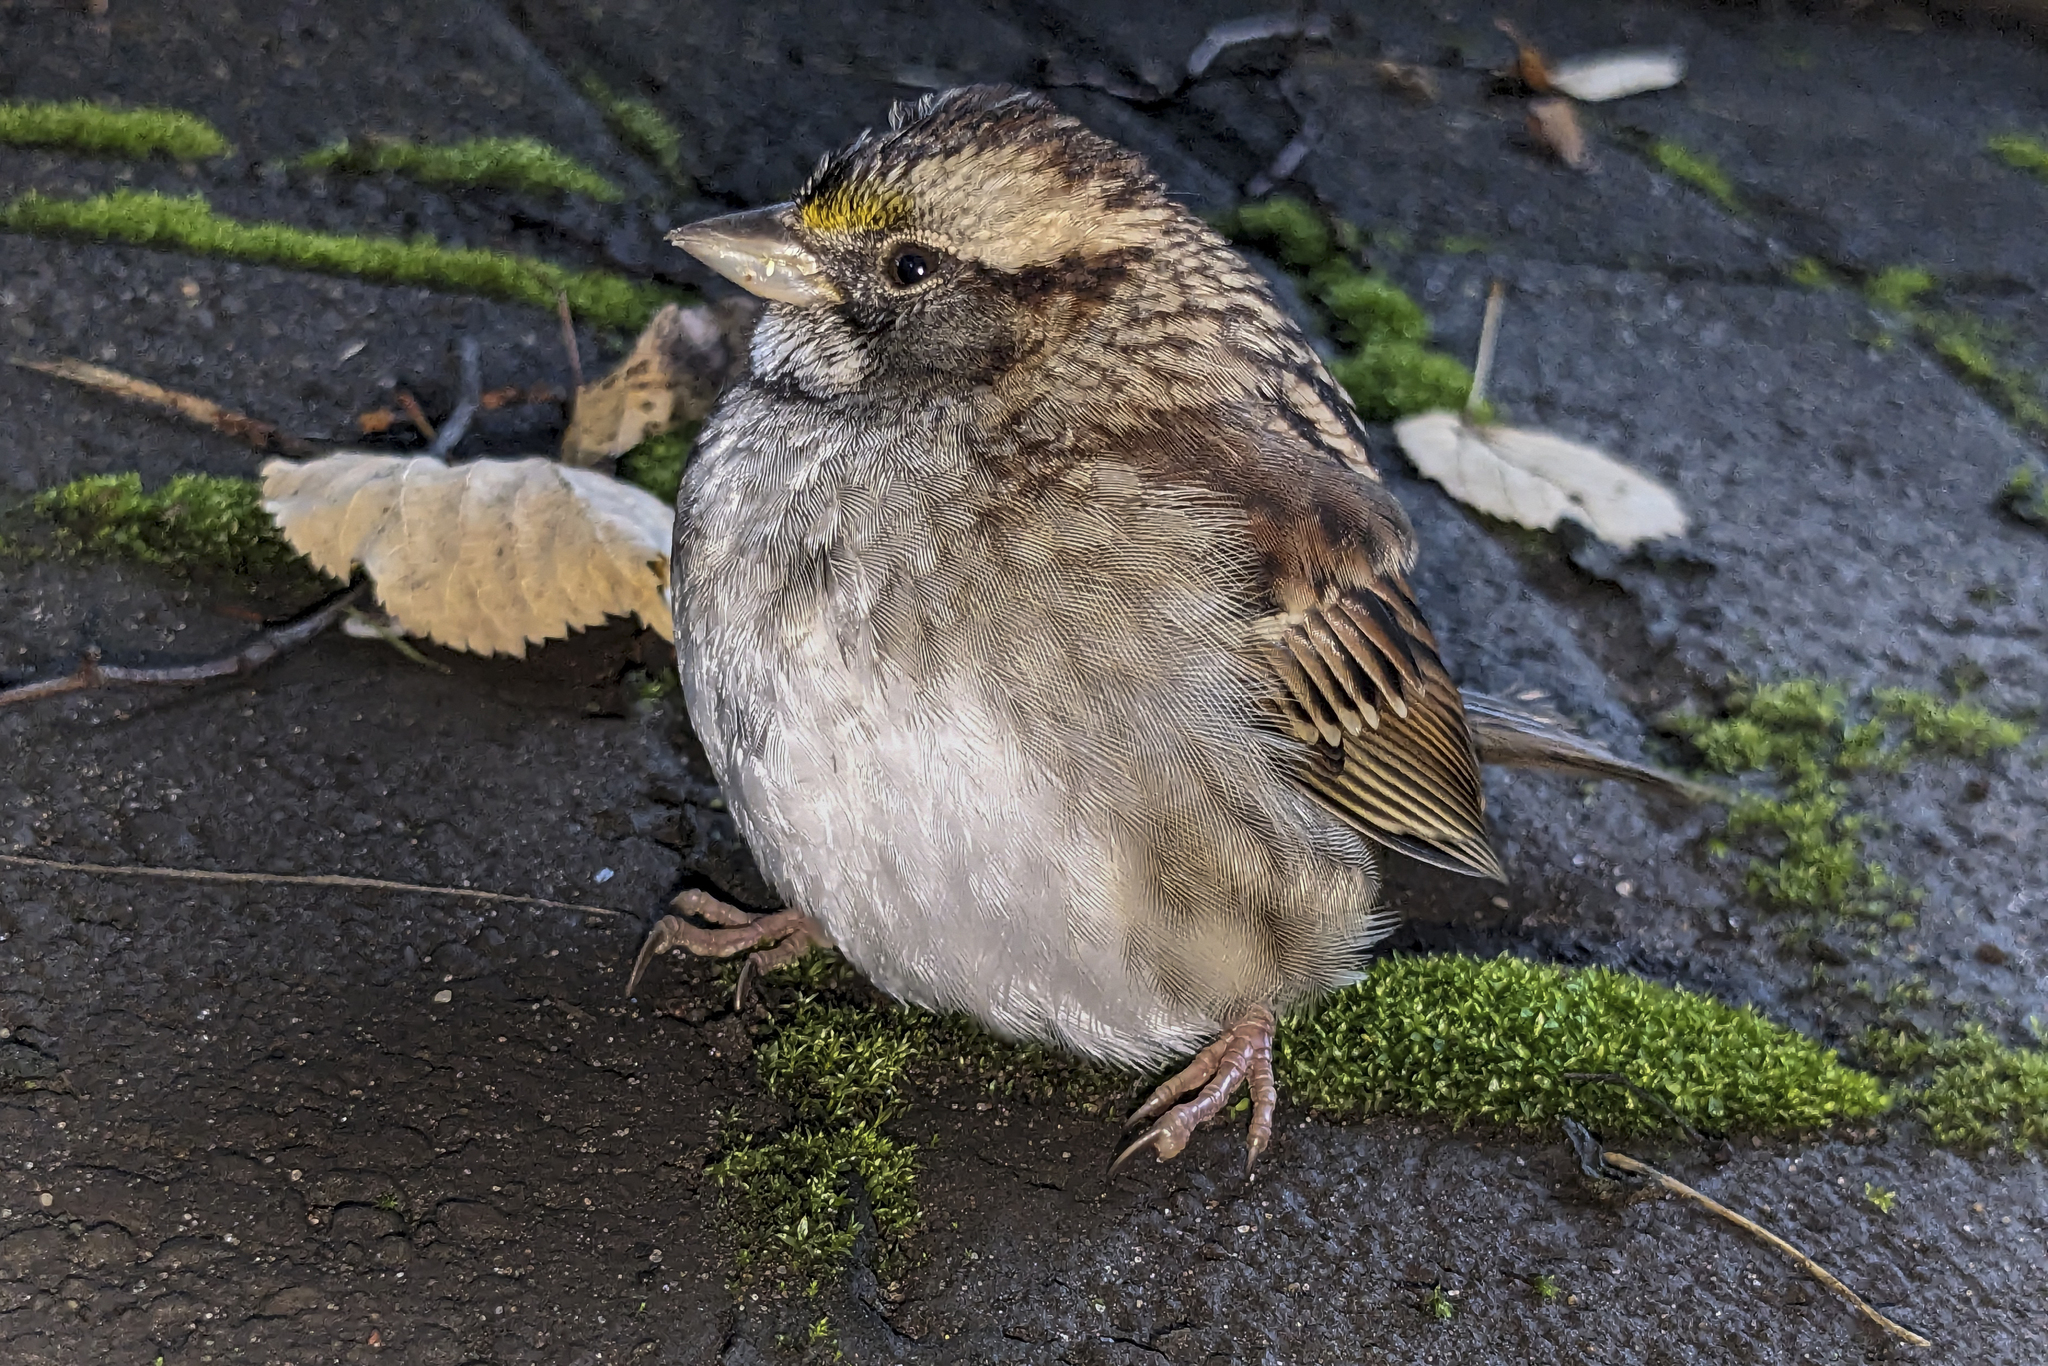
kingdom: Animalia
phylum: Chordata
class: Aves
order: Passeriformes
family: Passerellidae
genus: Zonotrichia
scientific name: Zonotrichia albicollis
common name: White-throated sparrow
